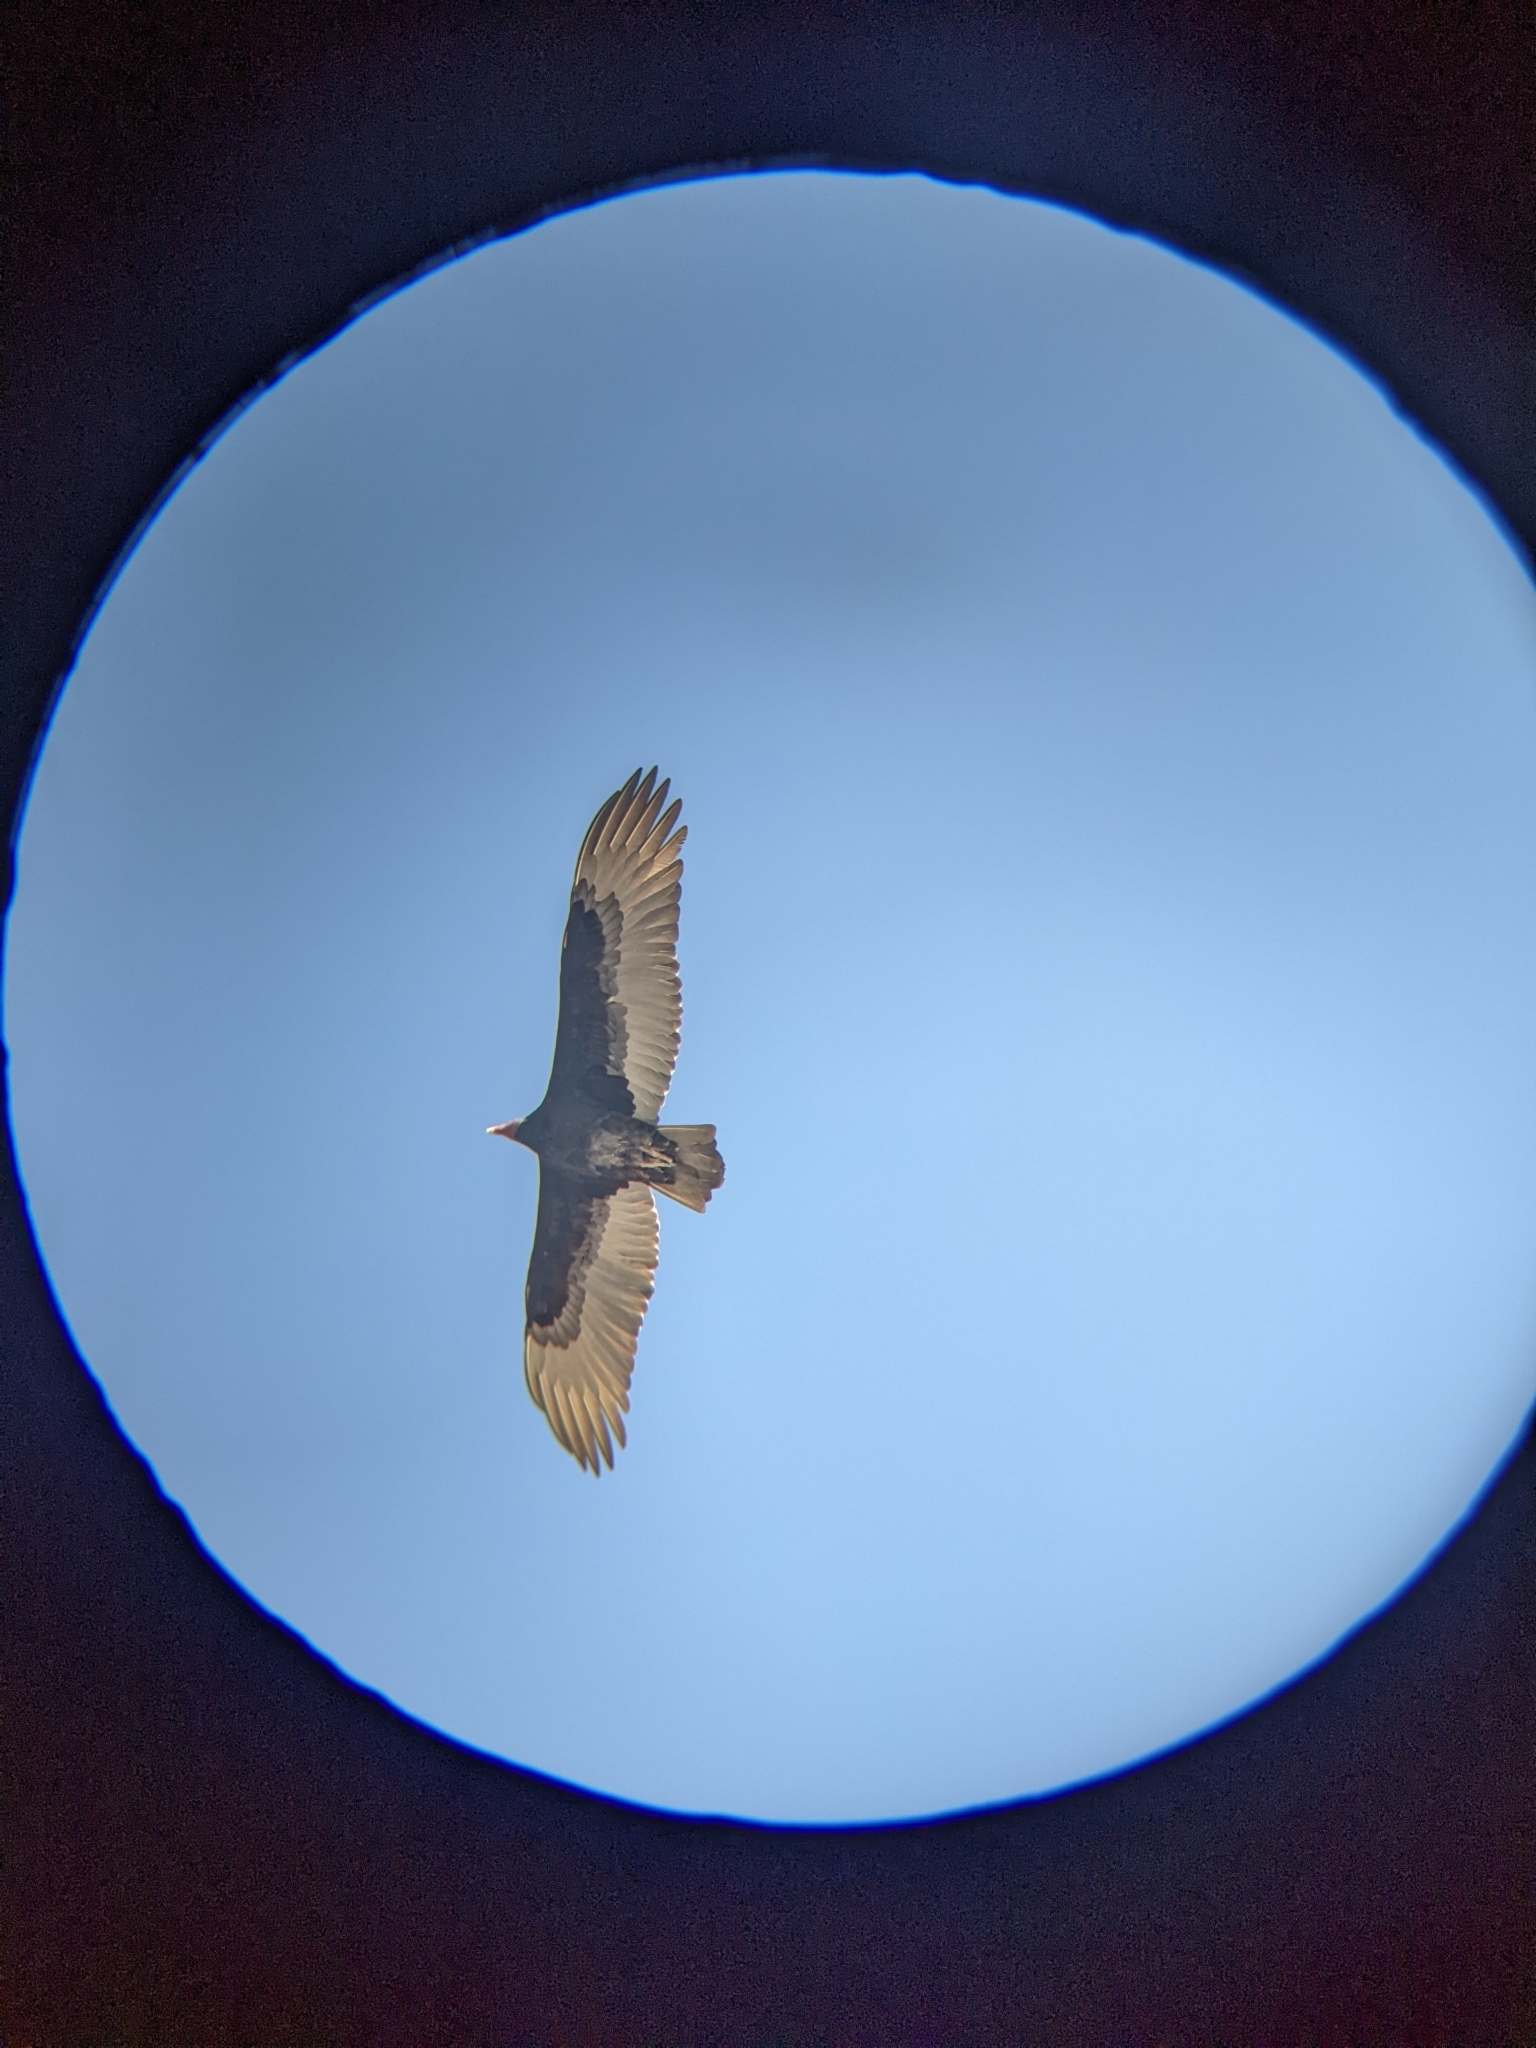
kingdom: Animalia
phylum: Chordata
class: Aves
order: Accipitriformes
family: Cathartidae
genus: Cathartes
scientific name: Cathartes aura
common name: Turkey vulture
